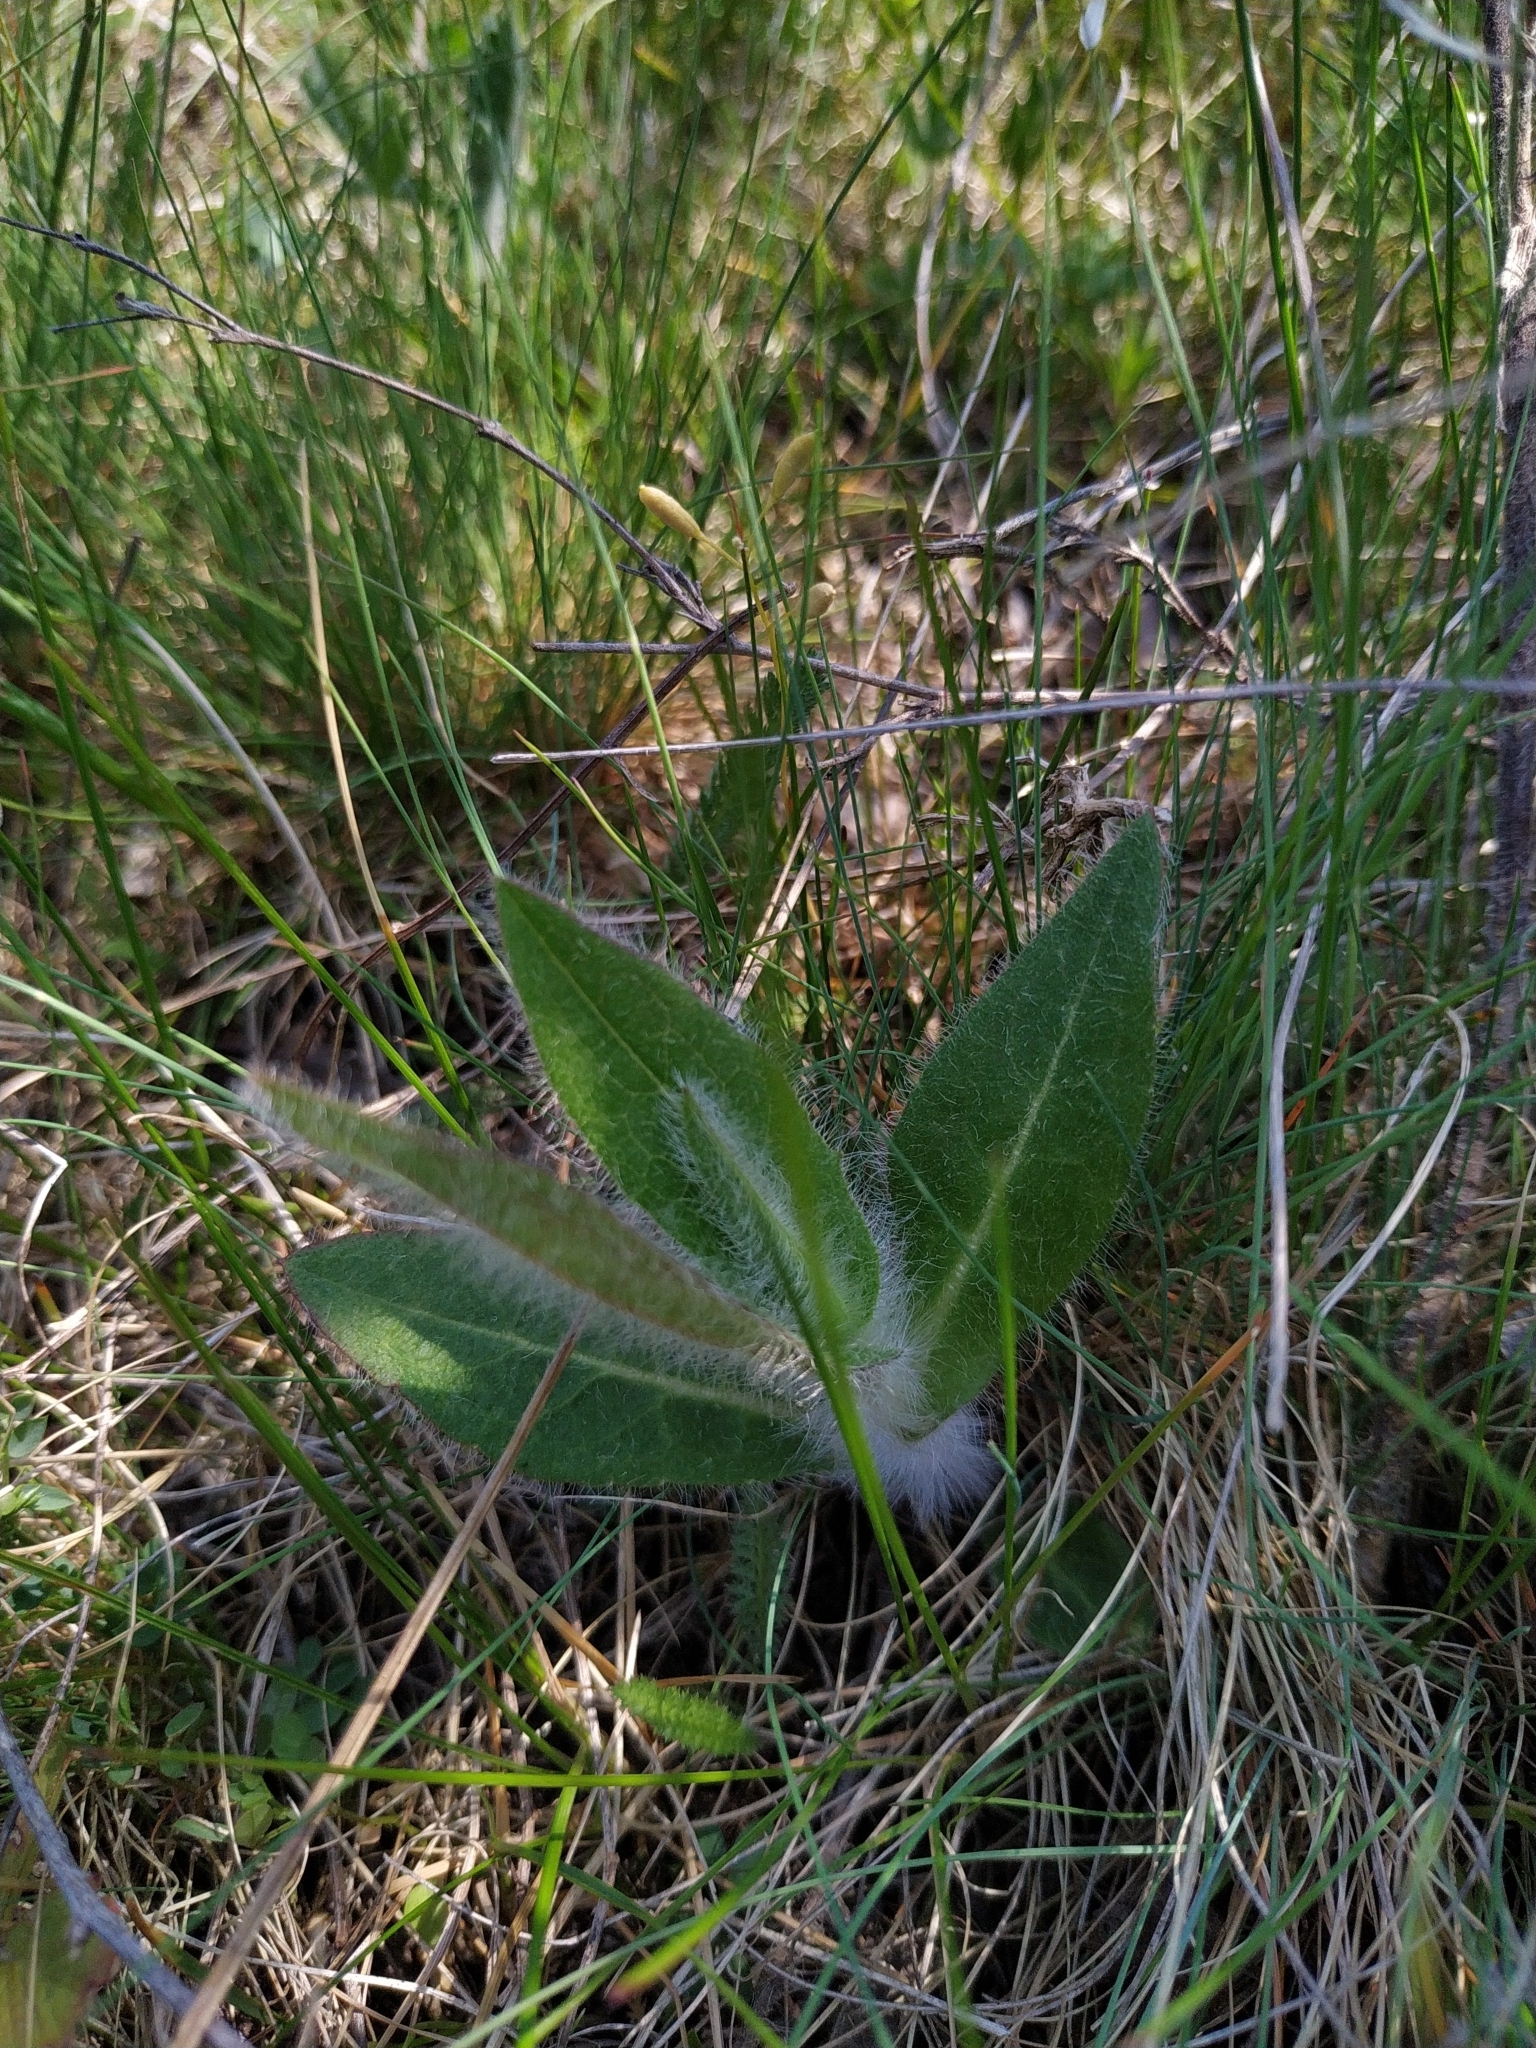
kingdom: Plantae
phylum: Tracheophyta
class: Magnoliopsida
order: Asterales
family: Asteraceae
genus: Hieracium
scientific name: Hieracium virosum
